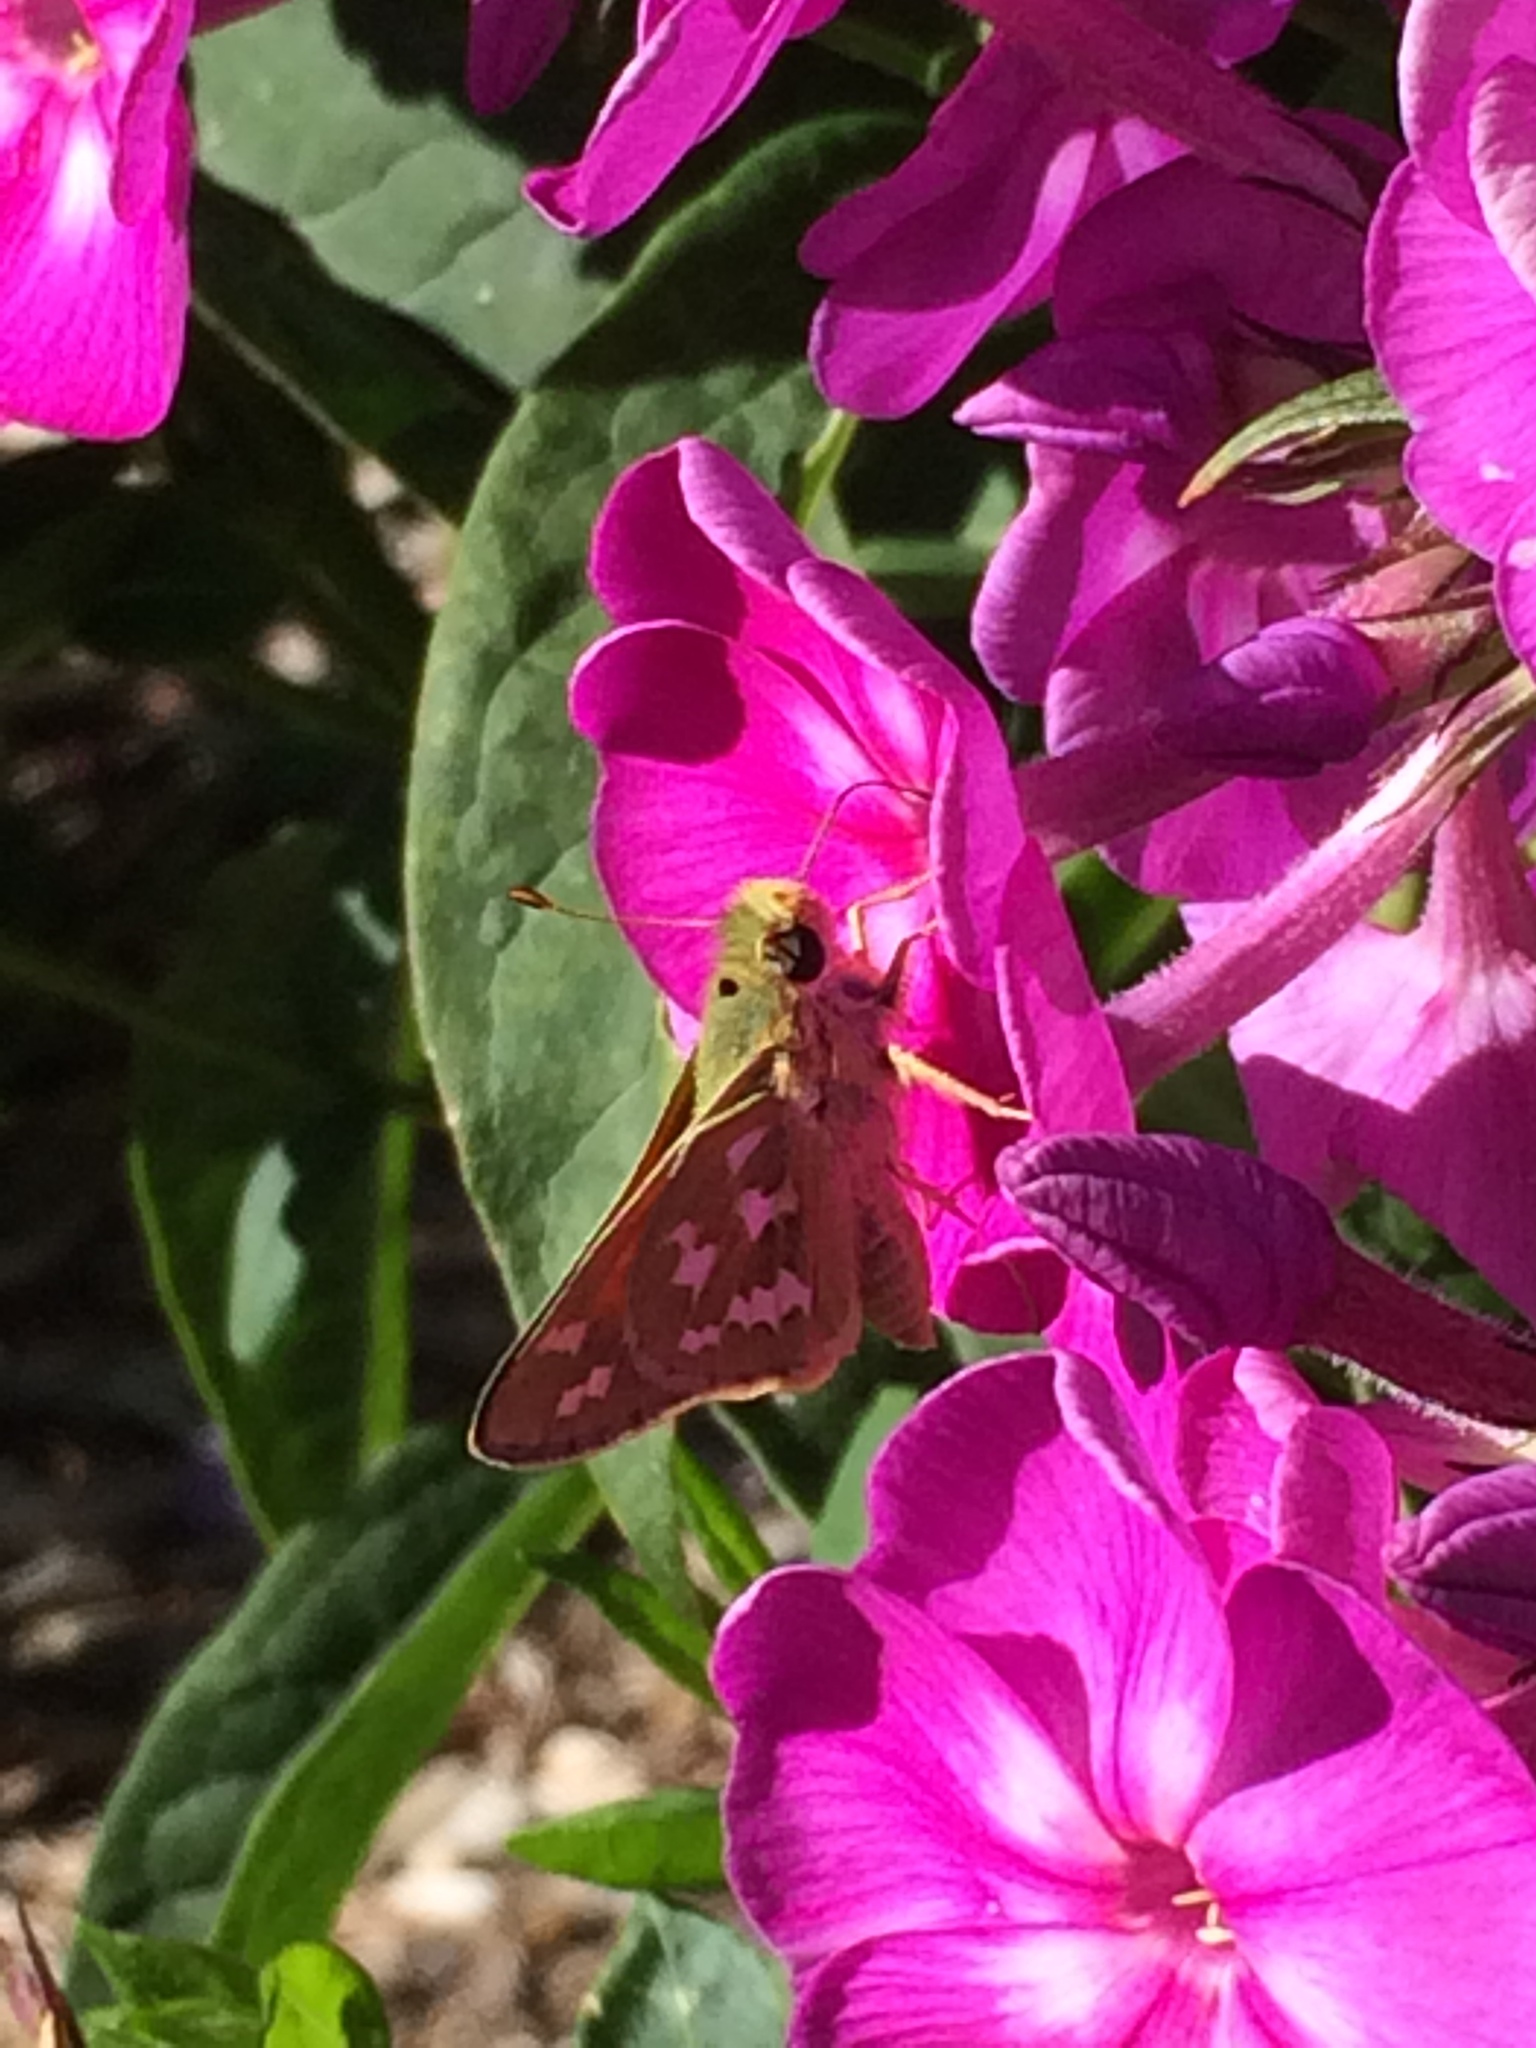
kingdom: Animalia
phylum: Arthropoda
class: Insecta
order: Lepidoptera
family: Hesperiidae
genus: Hesperia
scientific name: Hesperia juba
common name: Juba skipper
